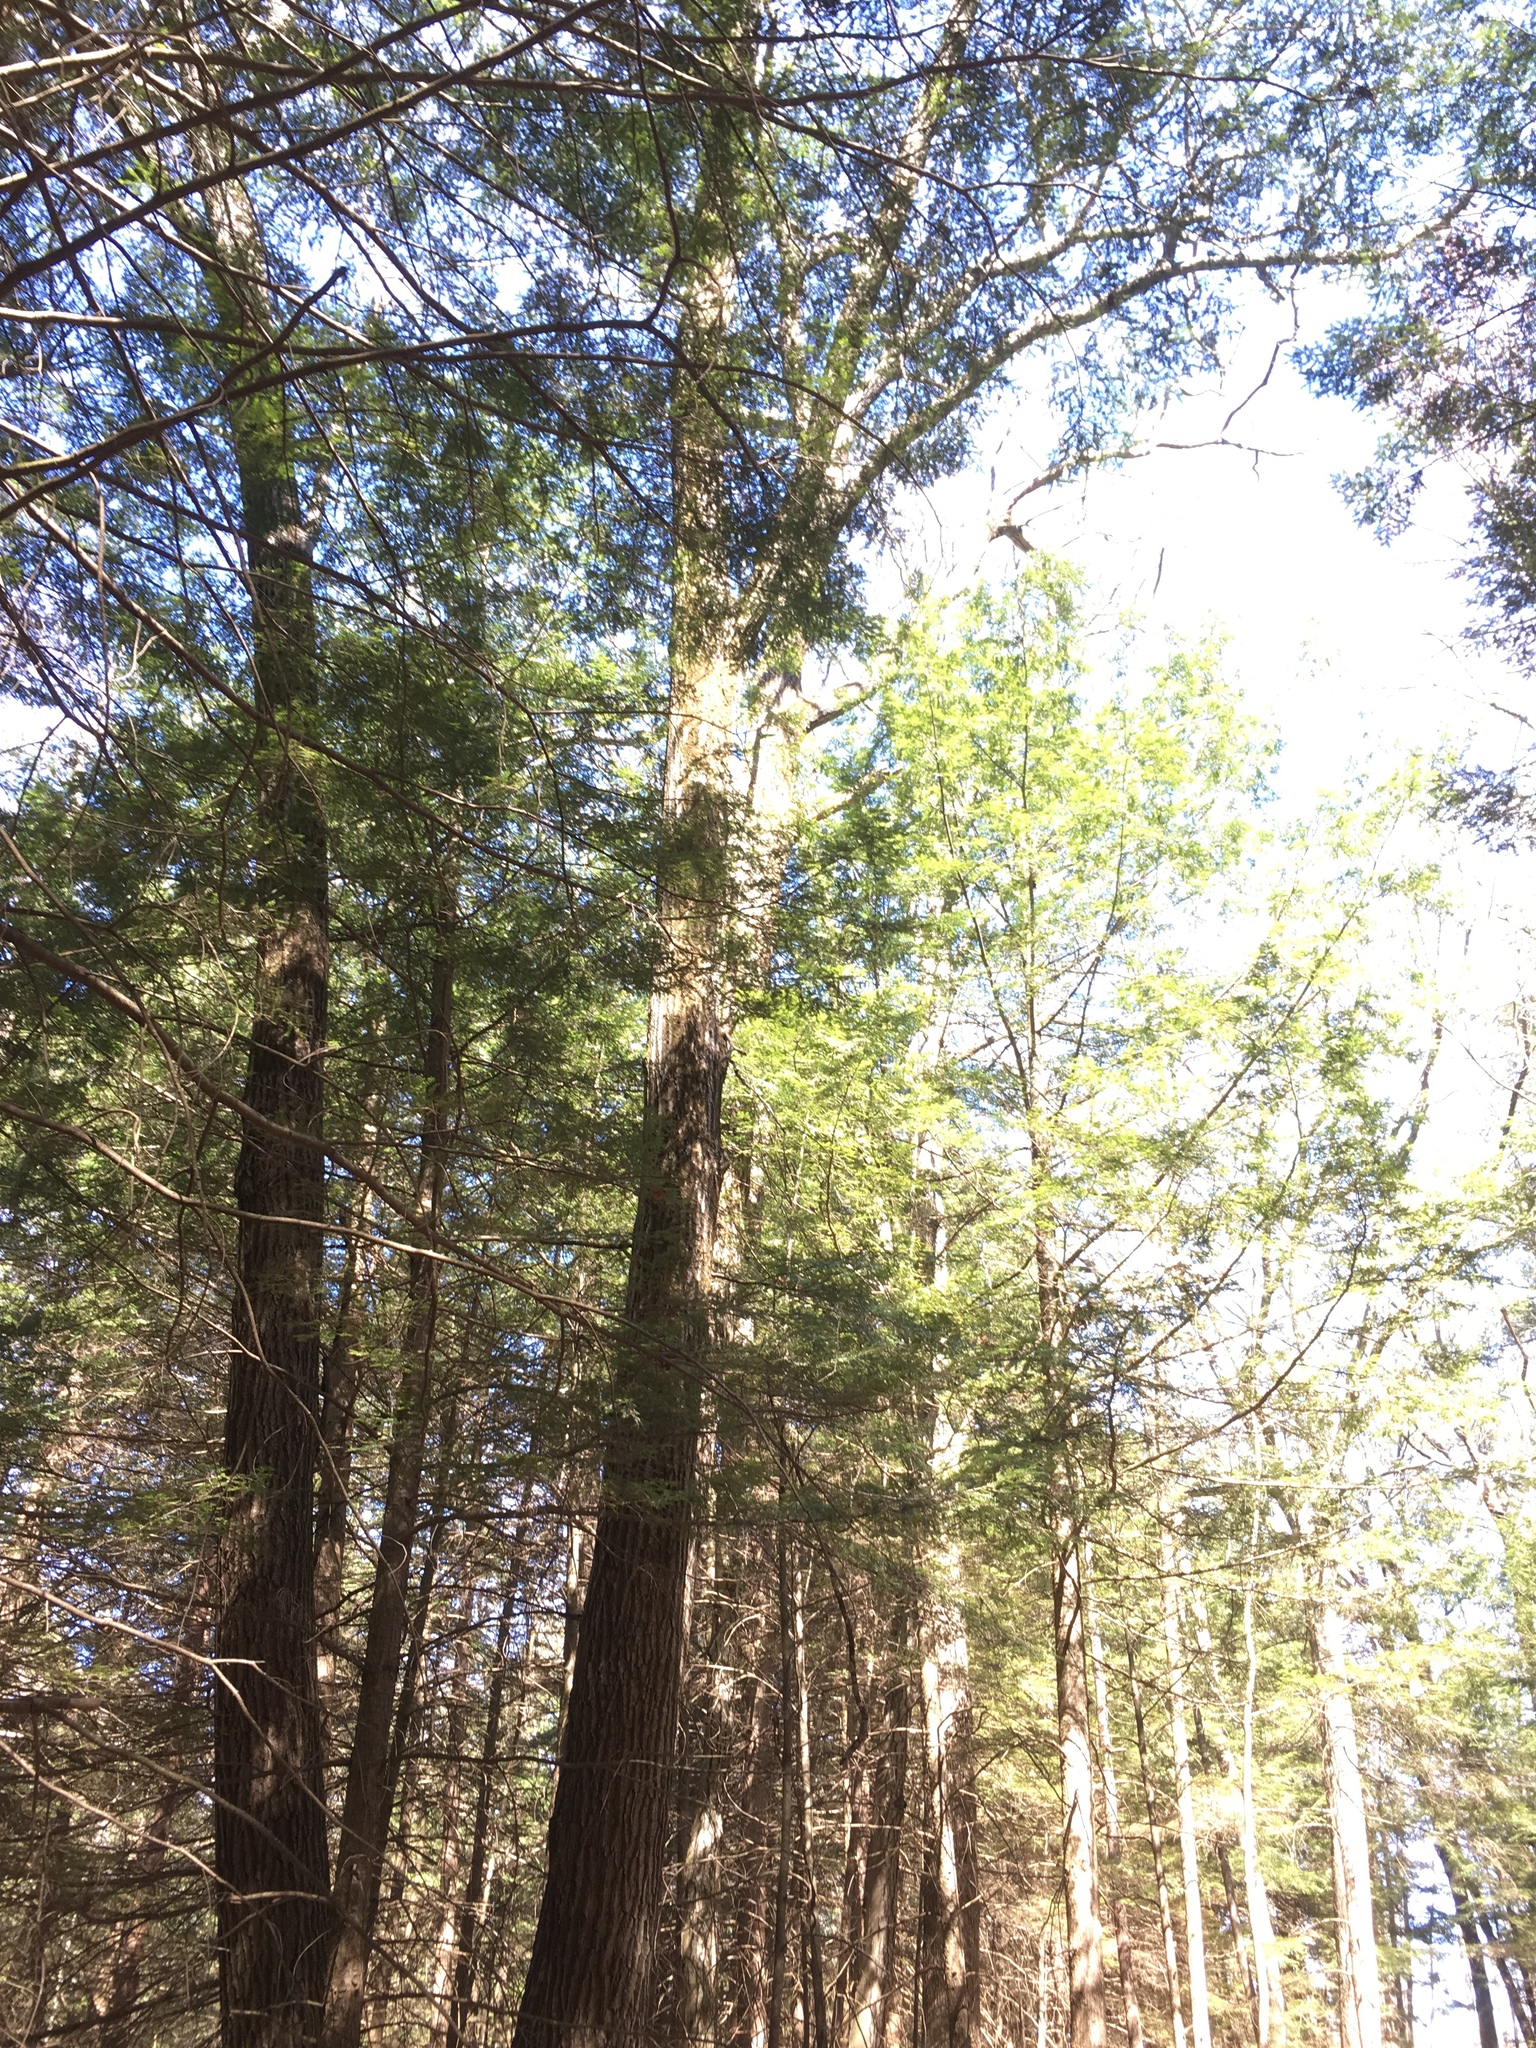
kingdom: Plantae
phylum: Tracheophyta
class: Pinopsida
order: Pinales
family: Pinaceae
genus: Tsuga
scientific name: Tsuga canadensis
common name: Eastern hemlock
